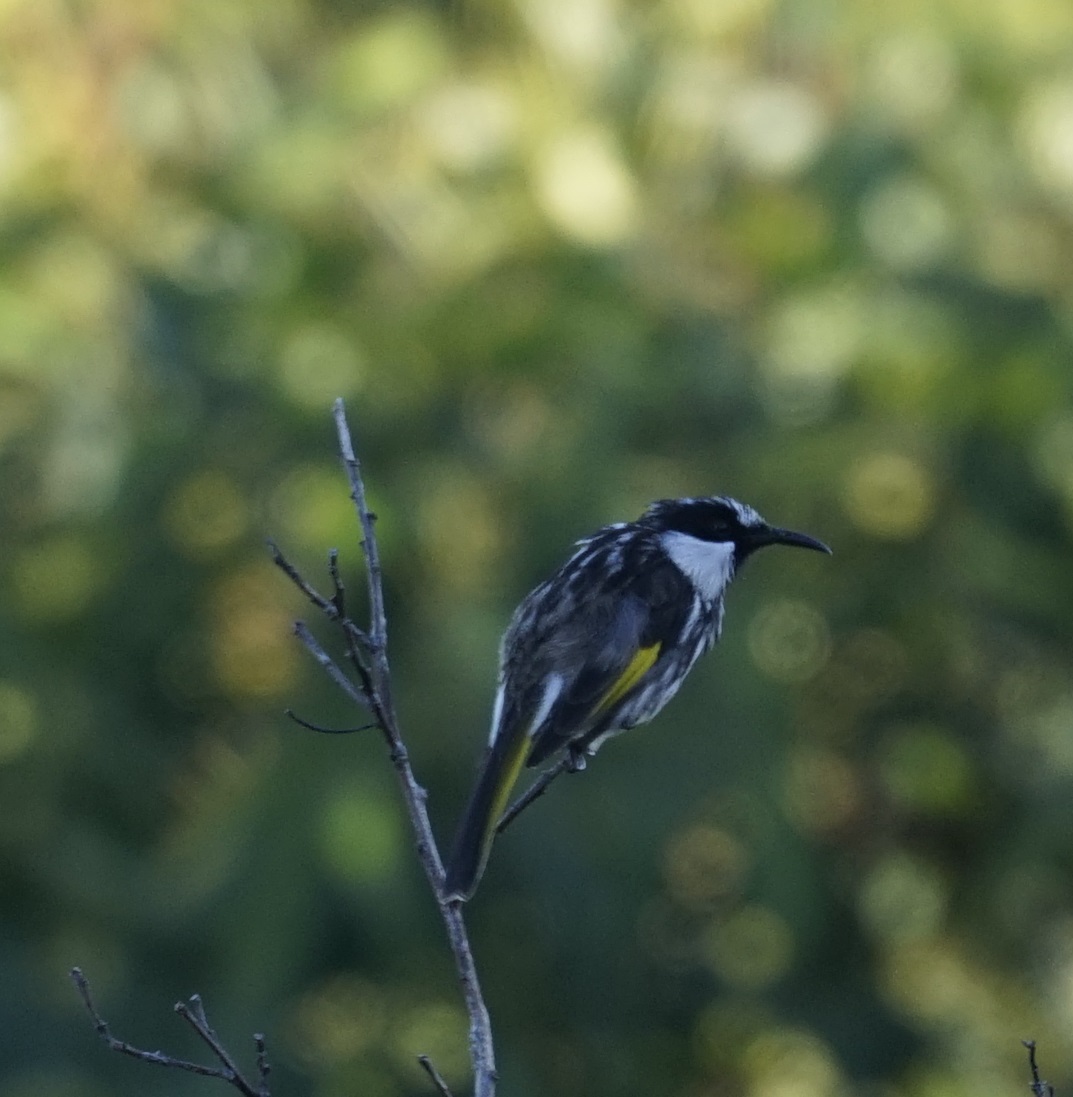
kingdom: Animalia
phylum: Chordata
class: Aves
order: Passeriformes
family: Meliphagidae
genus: Phylidonyris
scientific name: Phylidonyris niger
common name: White-cheeked honeyeater
